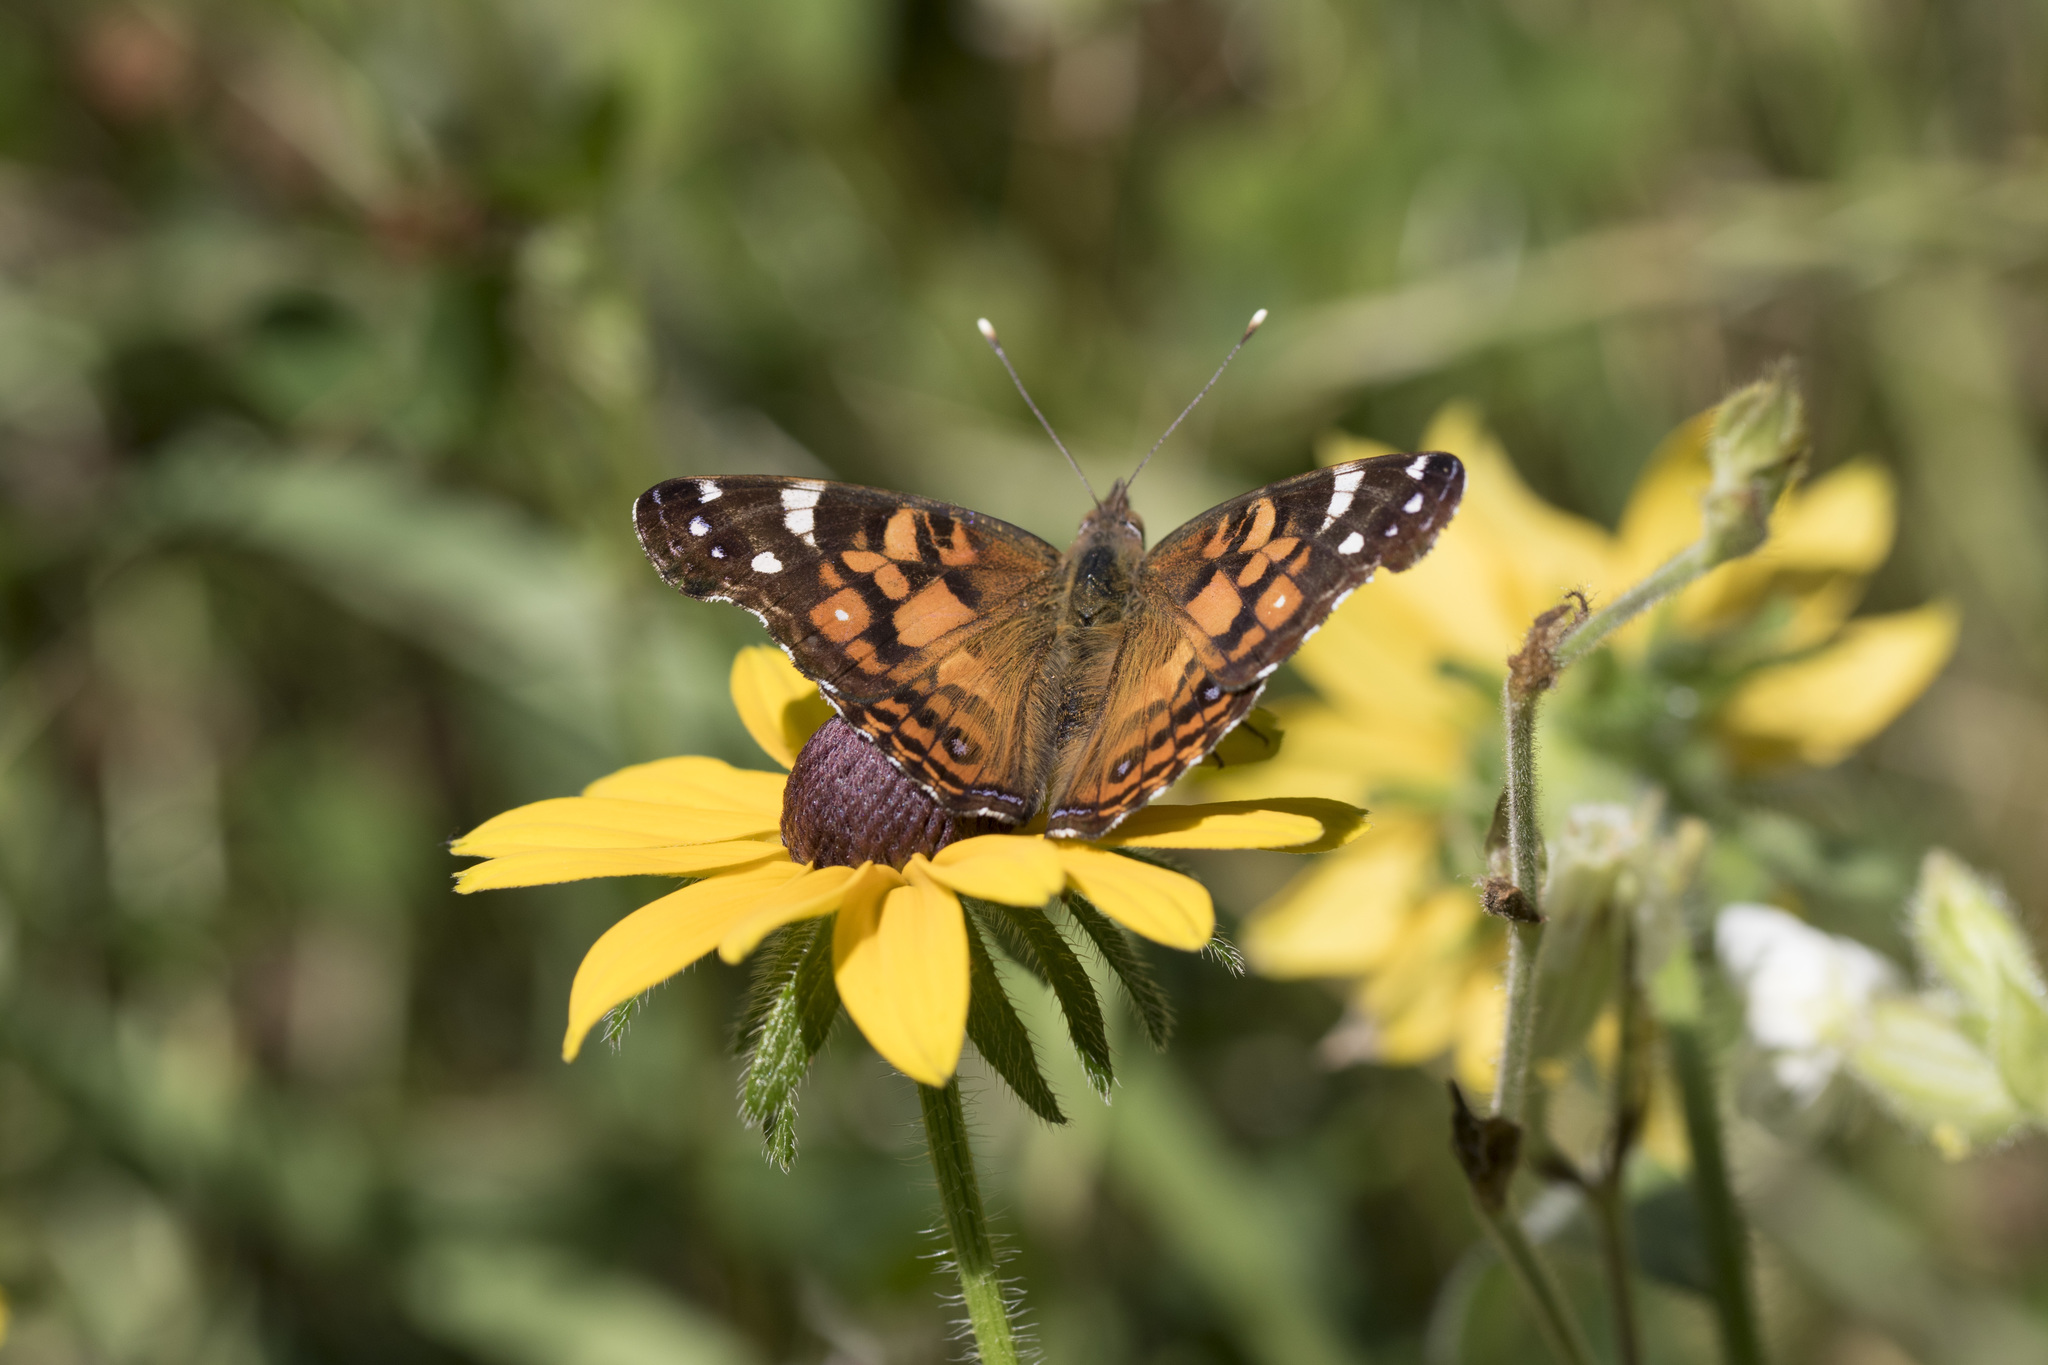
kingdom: Animalia
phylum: Arthropoda
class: Insecta
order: Lepidoptera
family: Nymphalidae
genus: Vanessa
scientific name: Vanessa virginiensis
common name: American lady
